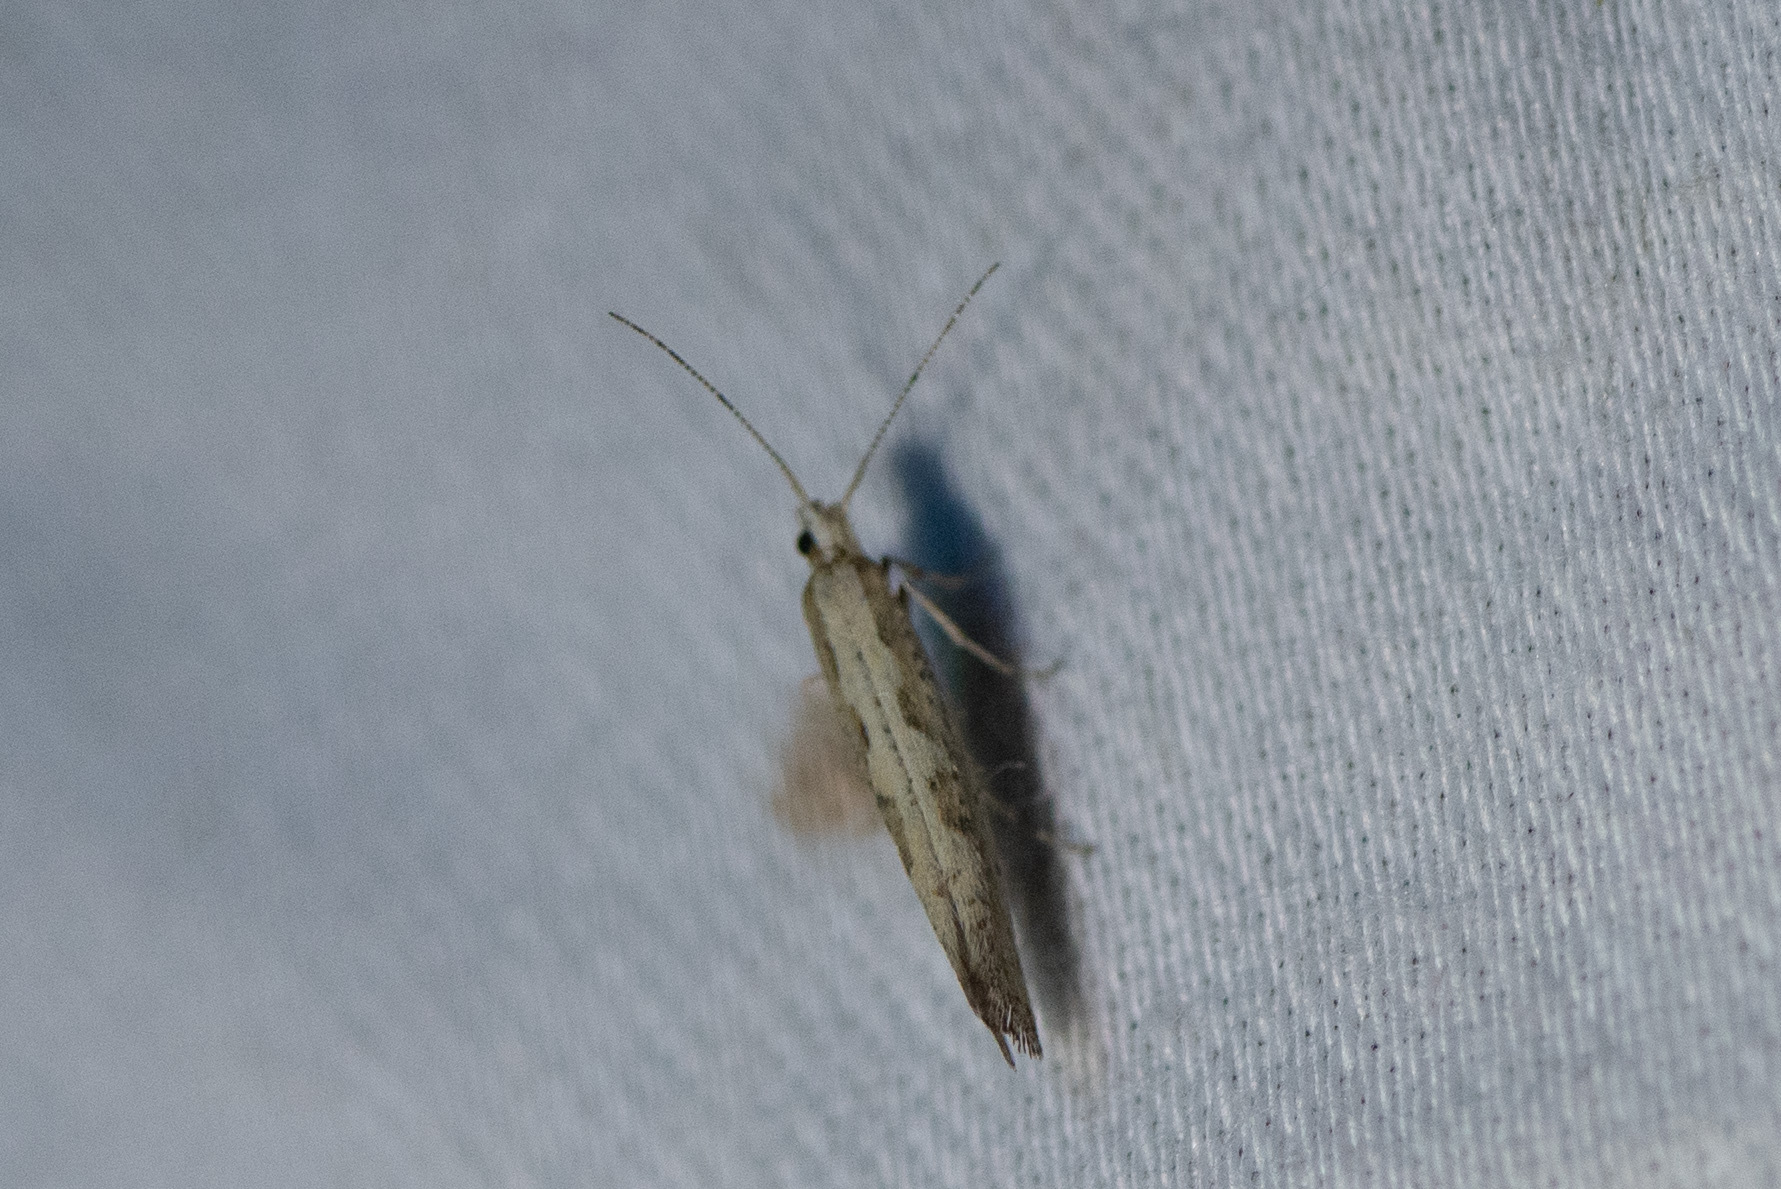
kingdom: Animalia
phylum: Arthropoda
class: Insecta
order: Lepidoptera
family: Plutellidae
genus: Plutella
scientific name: Plutella xylostella
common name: Diamond-back moth
